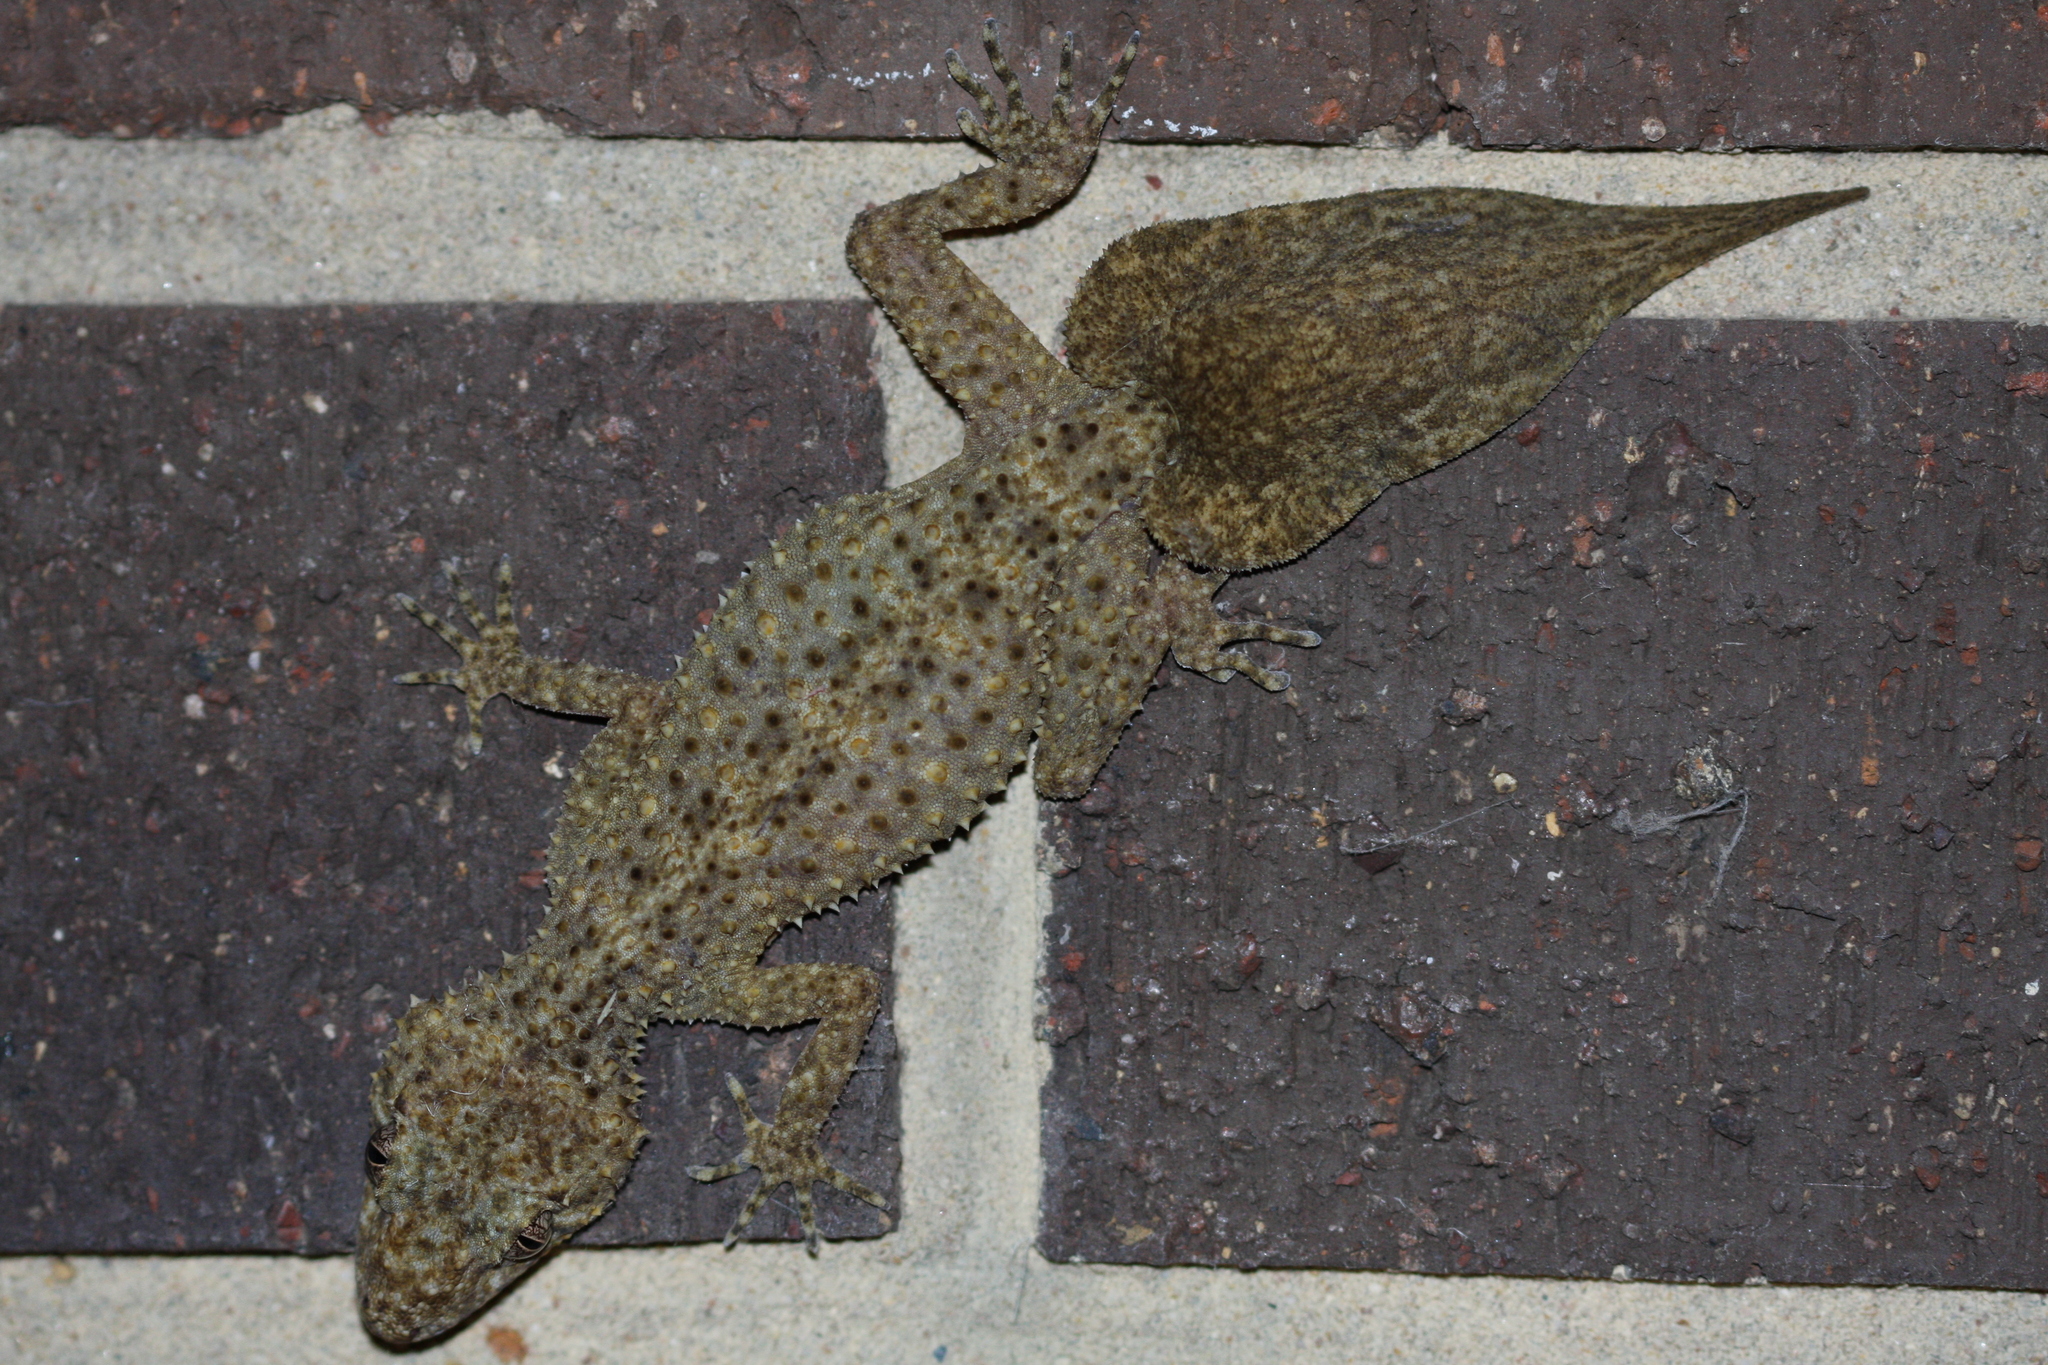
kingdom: Animalia
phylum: Chordata
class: Squamata
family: Carphodactylidae
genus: Phyllurus
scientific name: Phyllurus platurus
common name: Broad-tailed gecko
